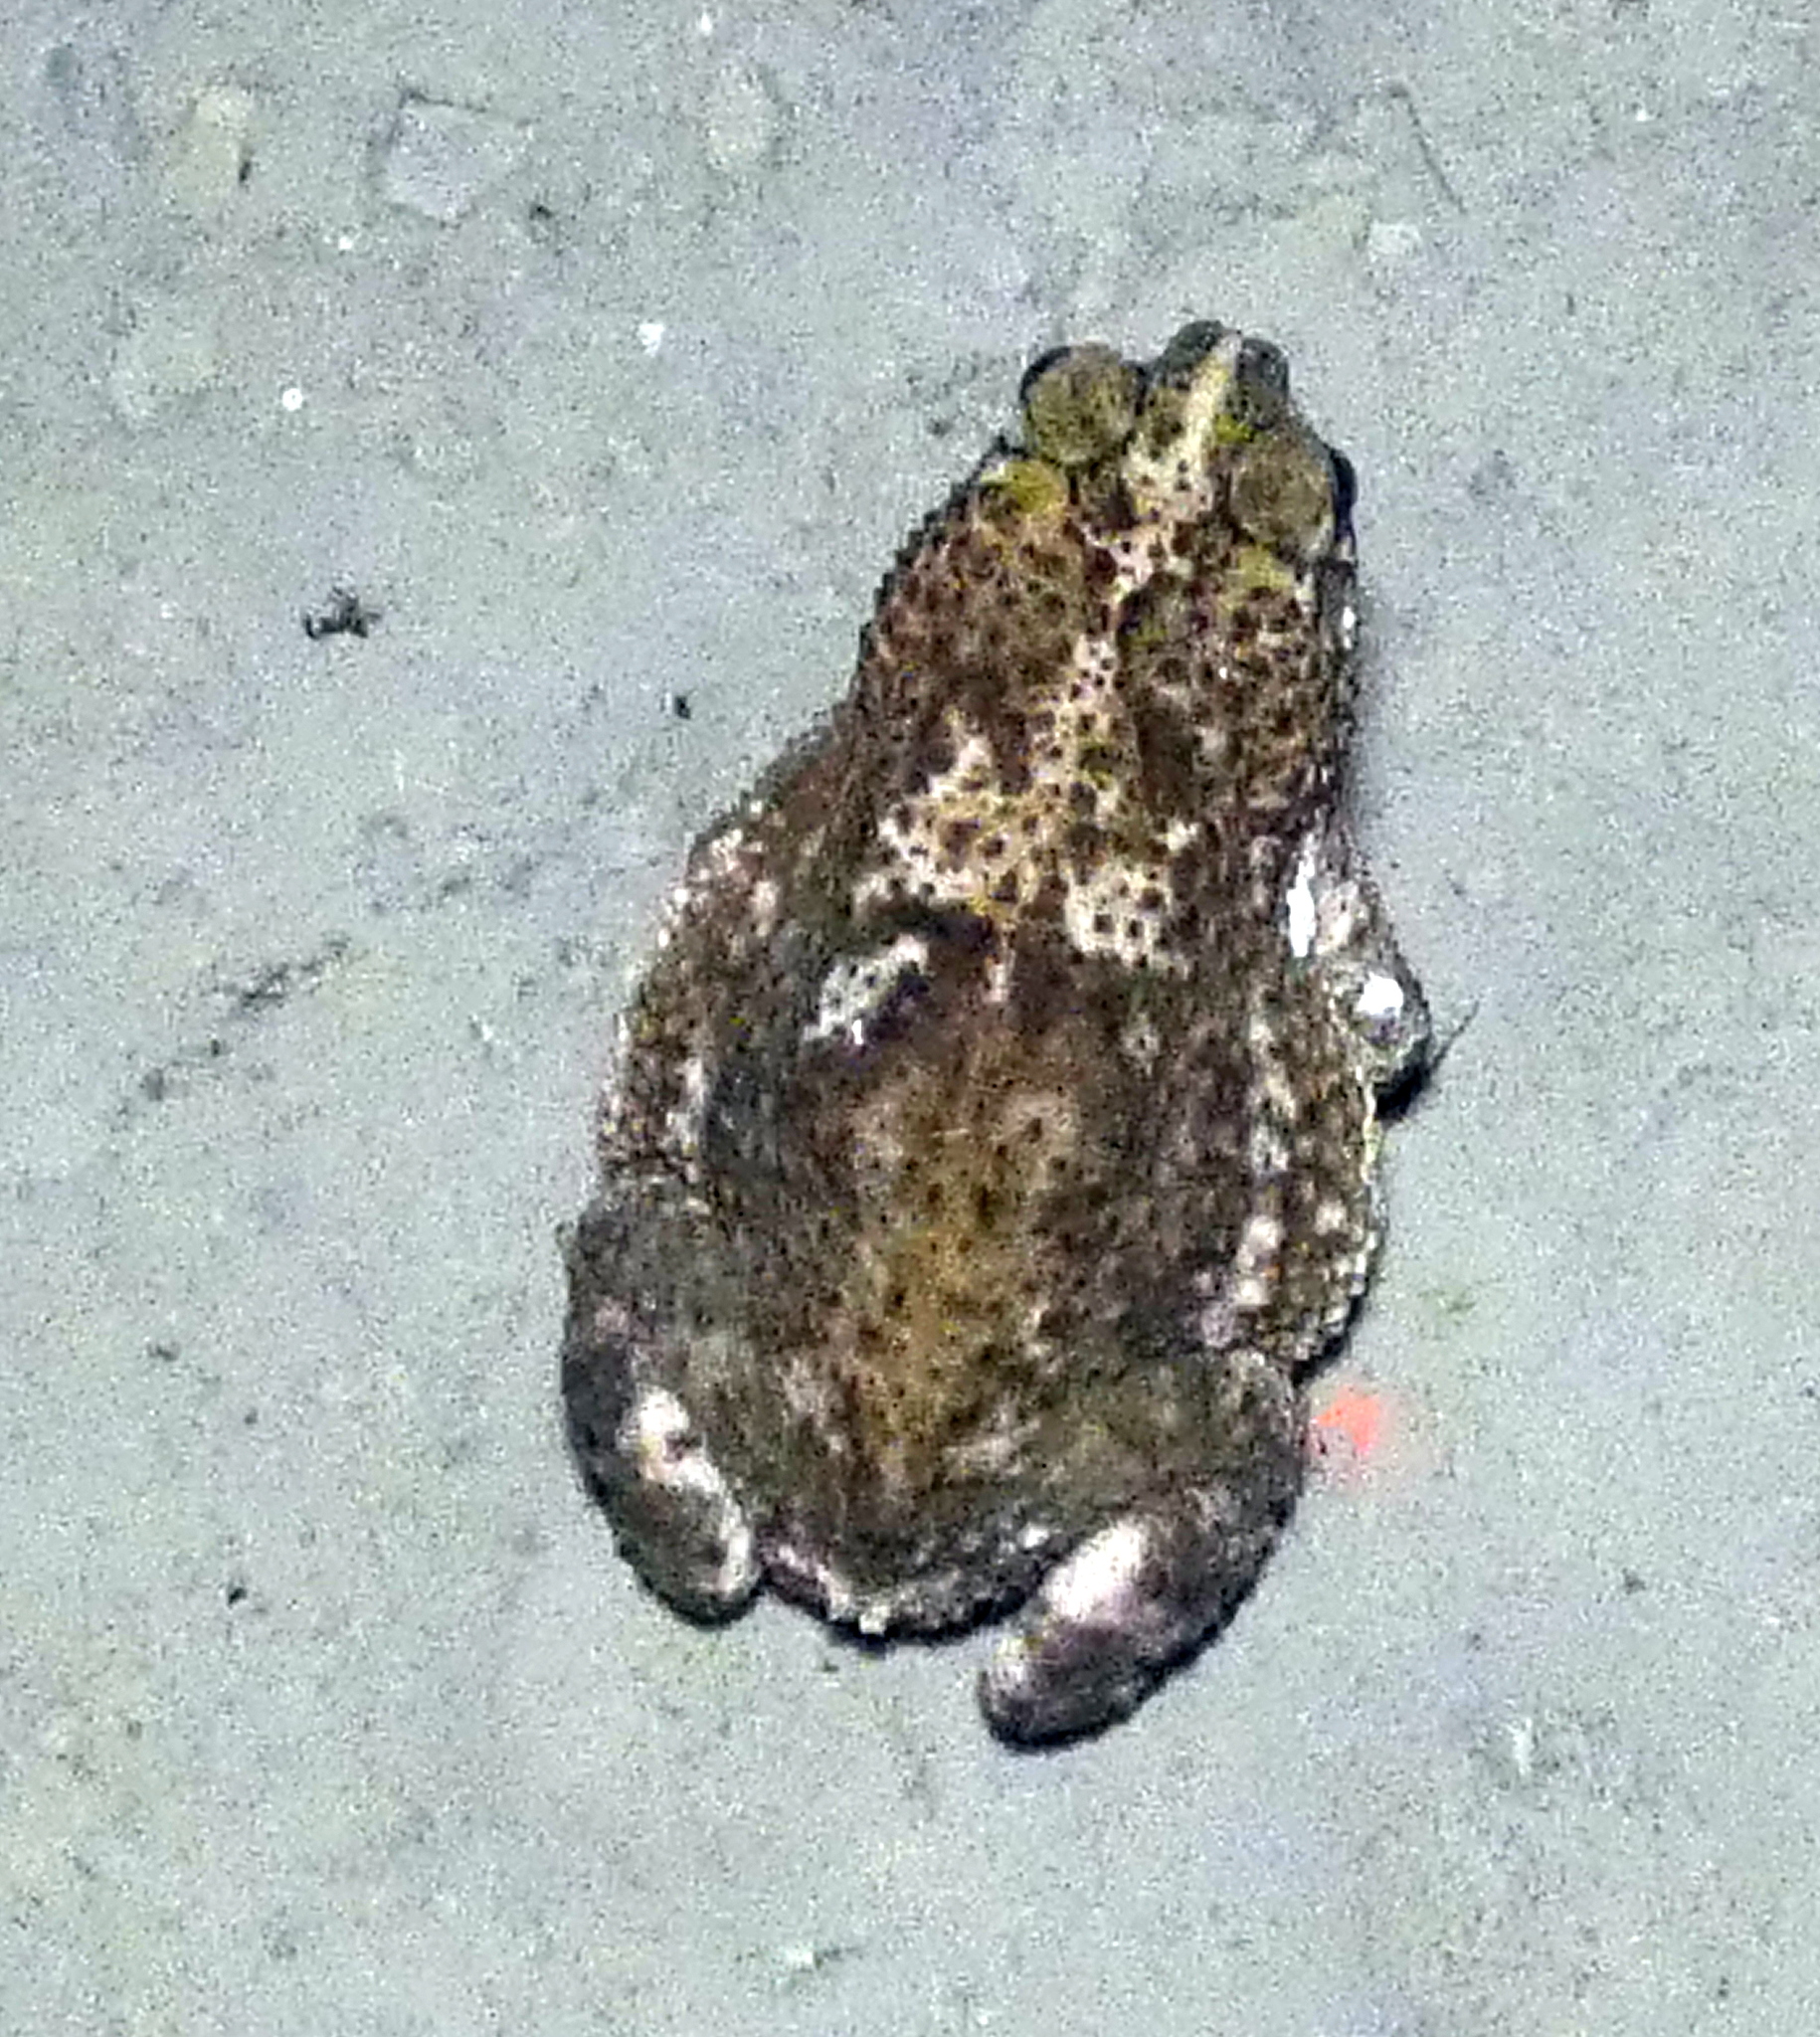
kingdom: Animalia
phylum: Chordata
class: Amphibia
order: Anura
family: Bufonidae
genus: Rhinella
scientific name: Rhinella granulosa
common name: Common lesser toad
